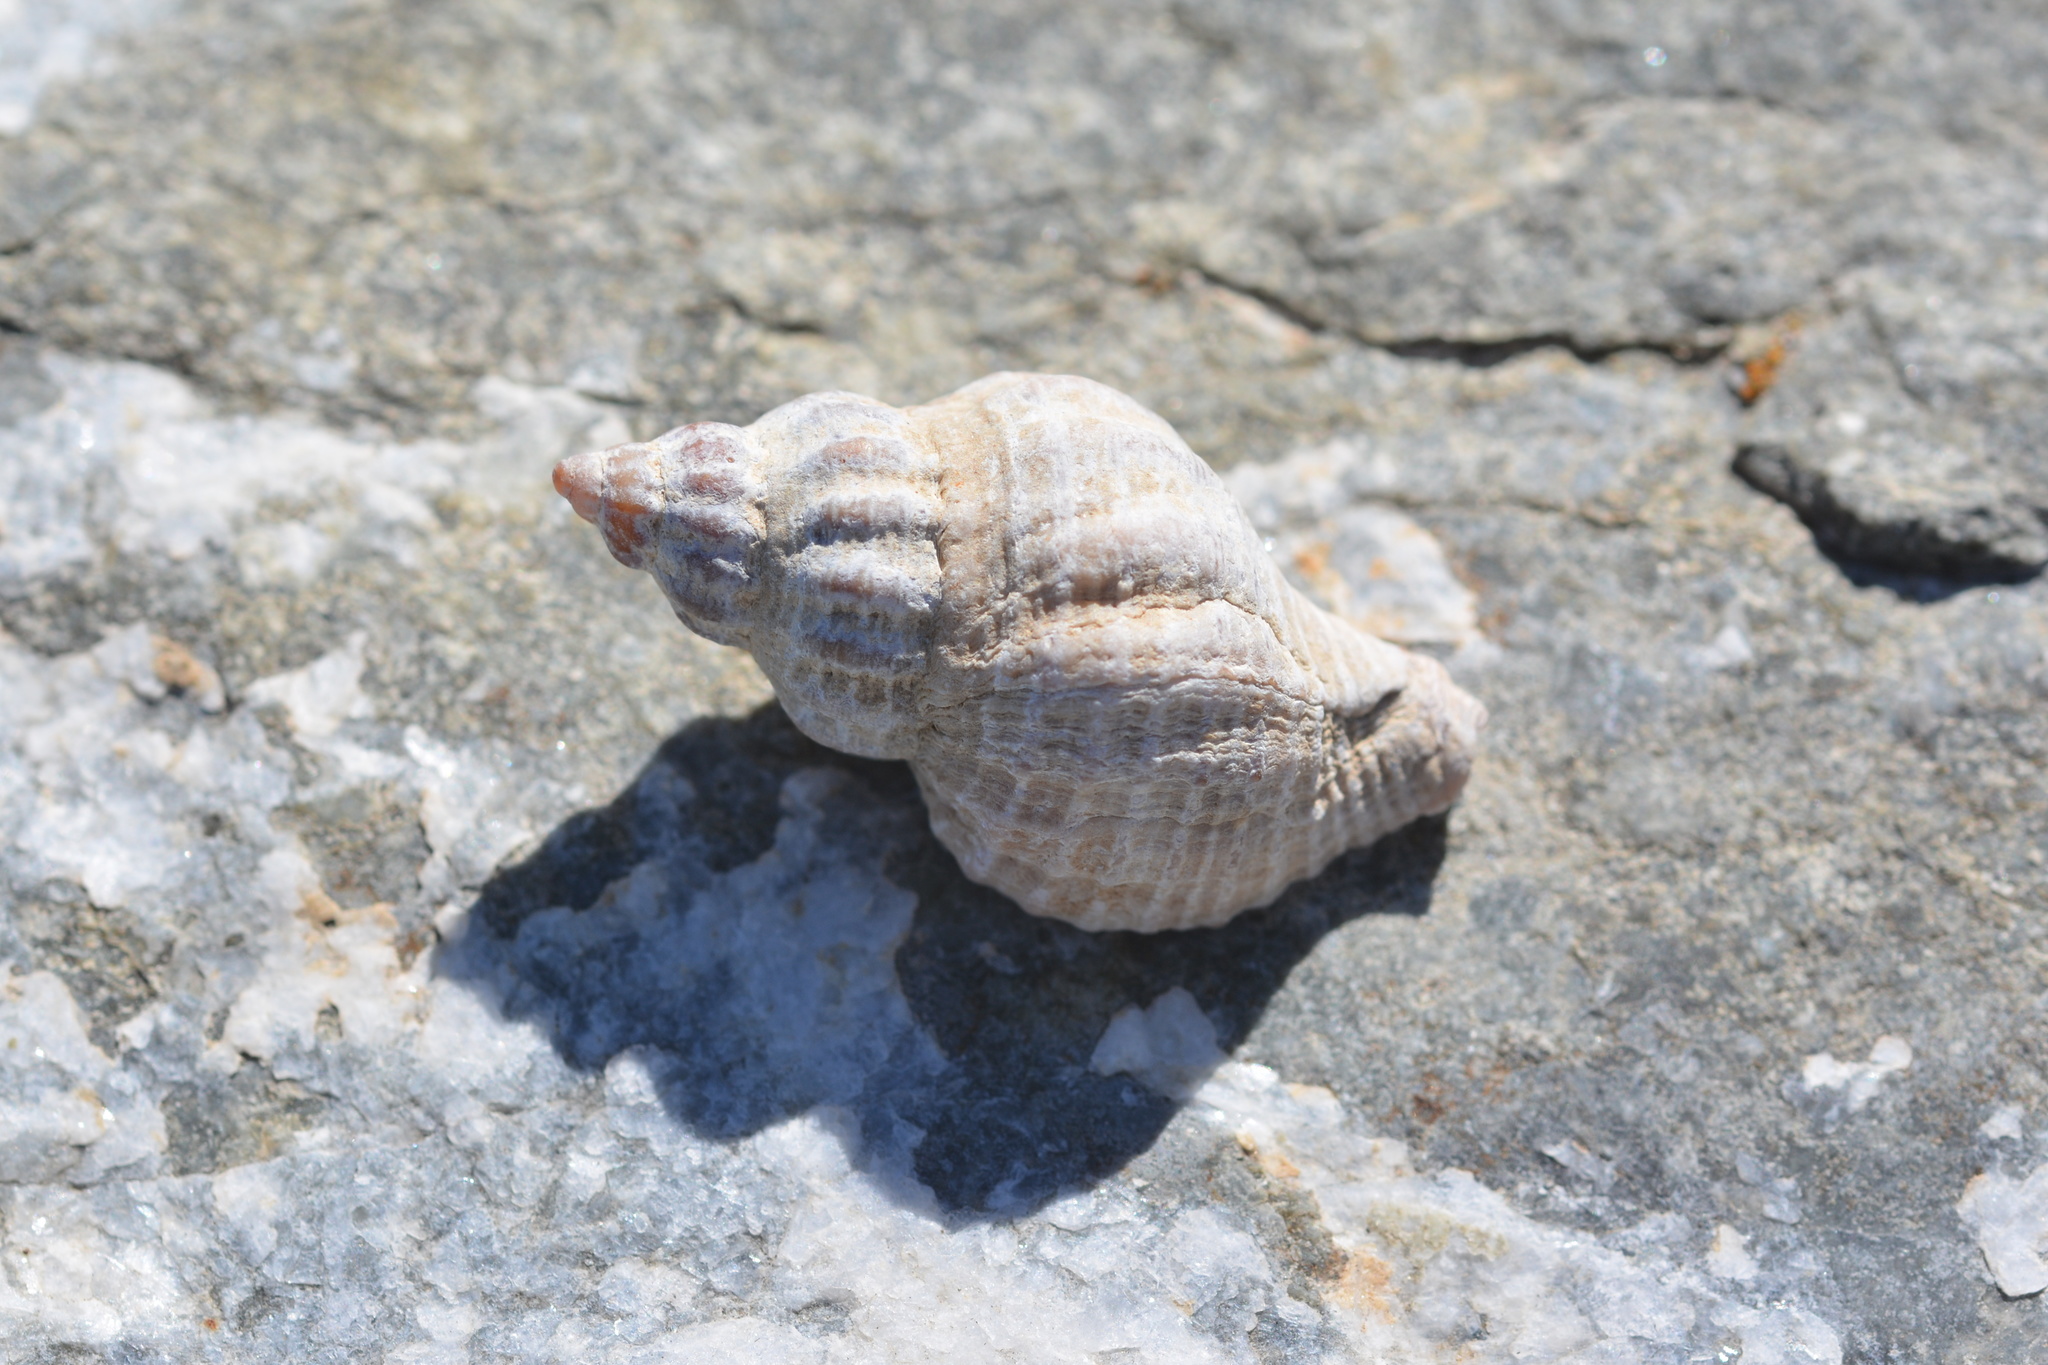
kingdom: Animalia
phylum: Mollusca
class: Gastropoda
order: Neogastropoda
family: Muricidae
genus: Urosalpinx
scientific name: Urosalpinx cinerea
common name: American sting winkle
